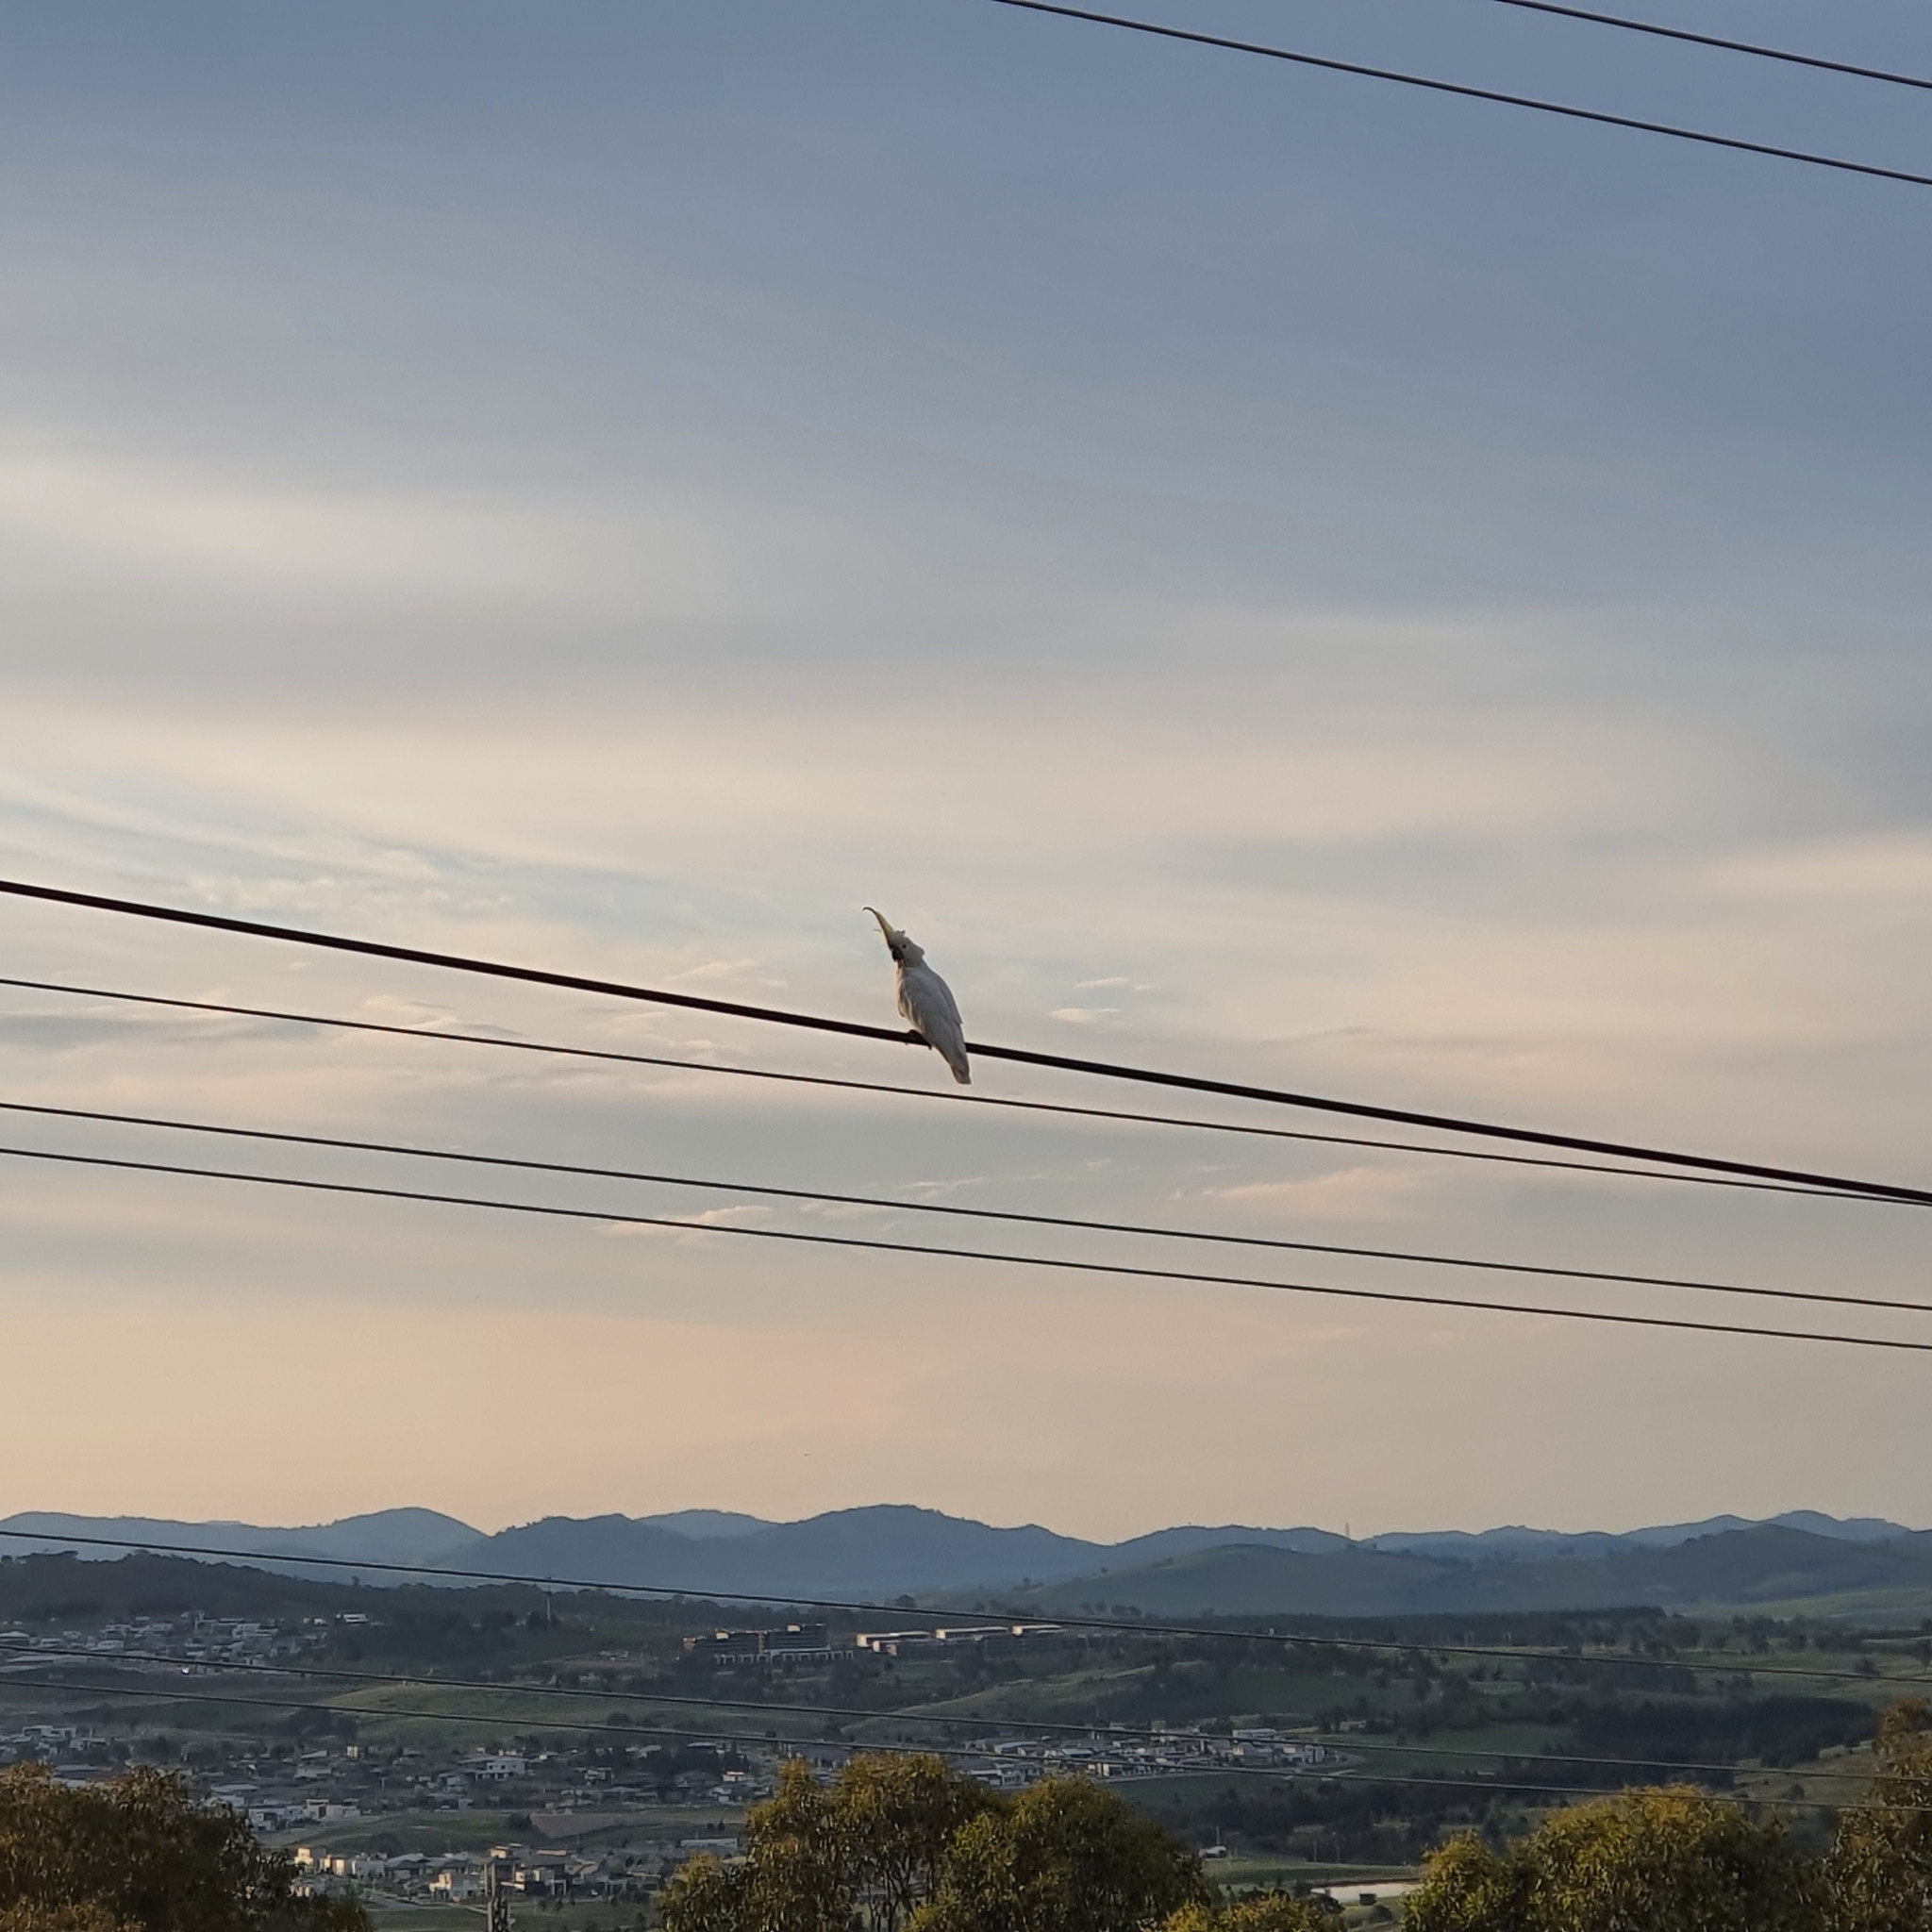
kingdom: Animalia
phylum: Chordata
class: Aves
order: Psittaciformes
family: Psittacidae
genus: Cacatua
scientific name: Cacatua galerita
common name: Sulphur-crested cockatoo
